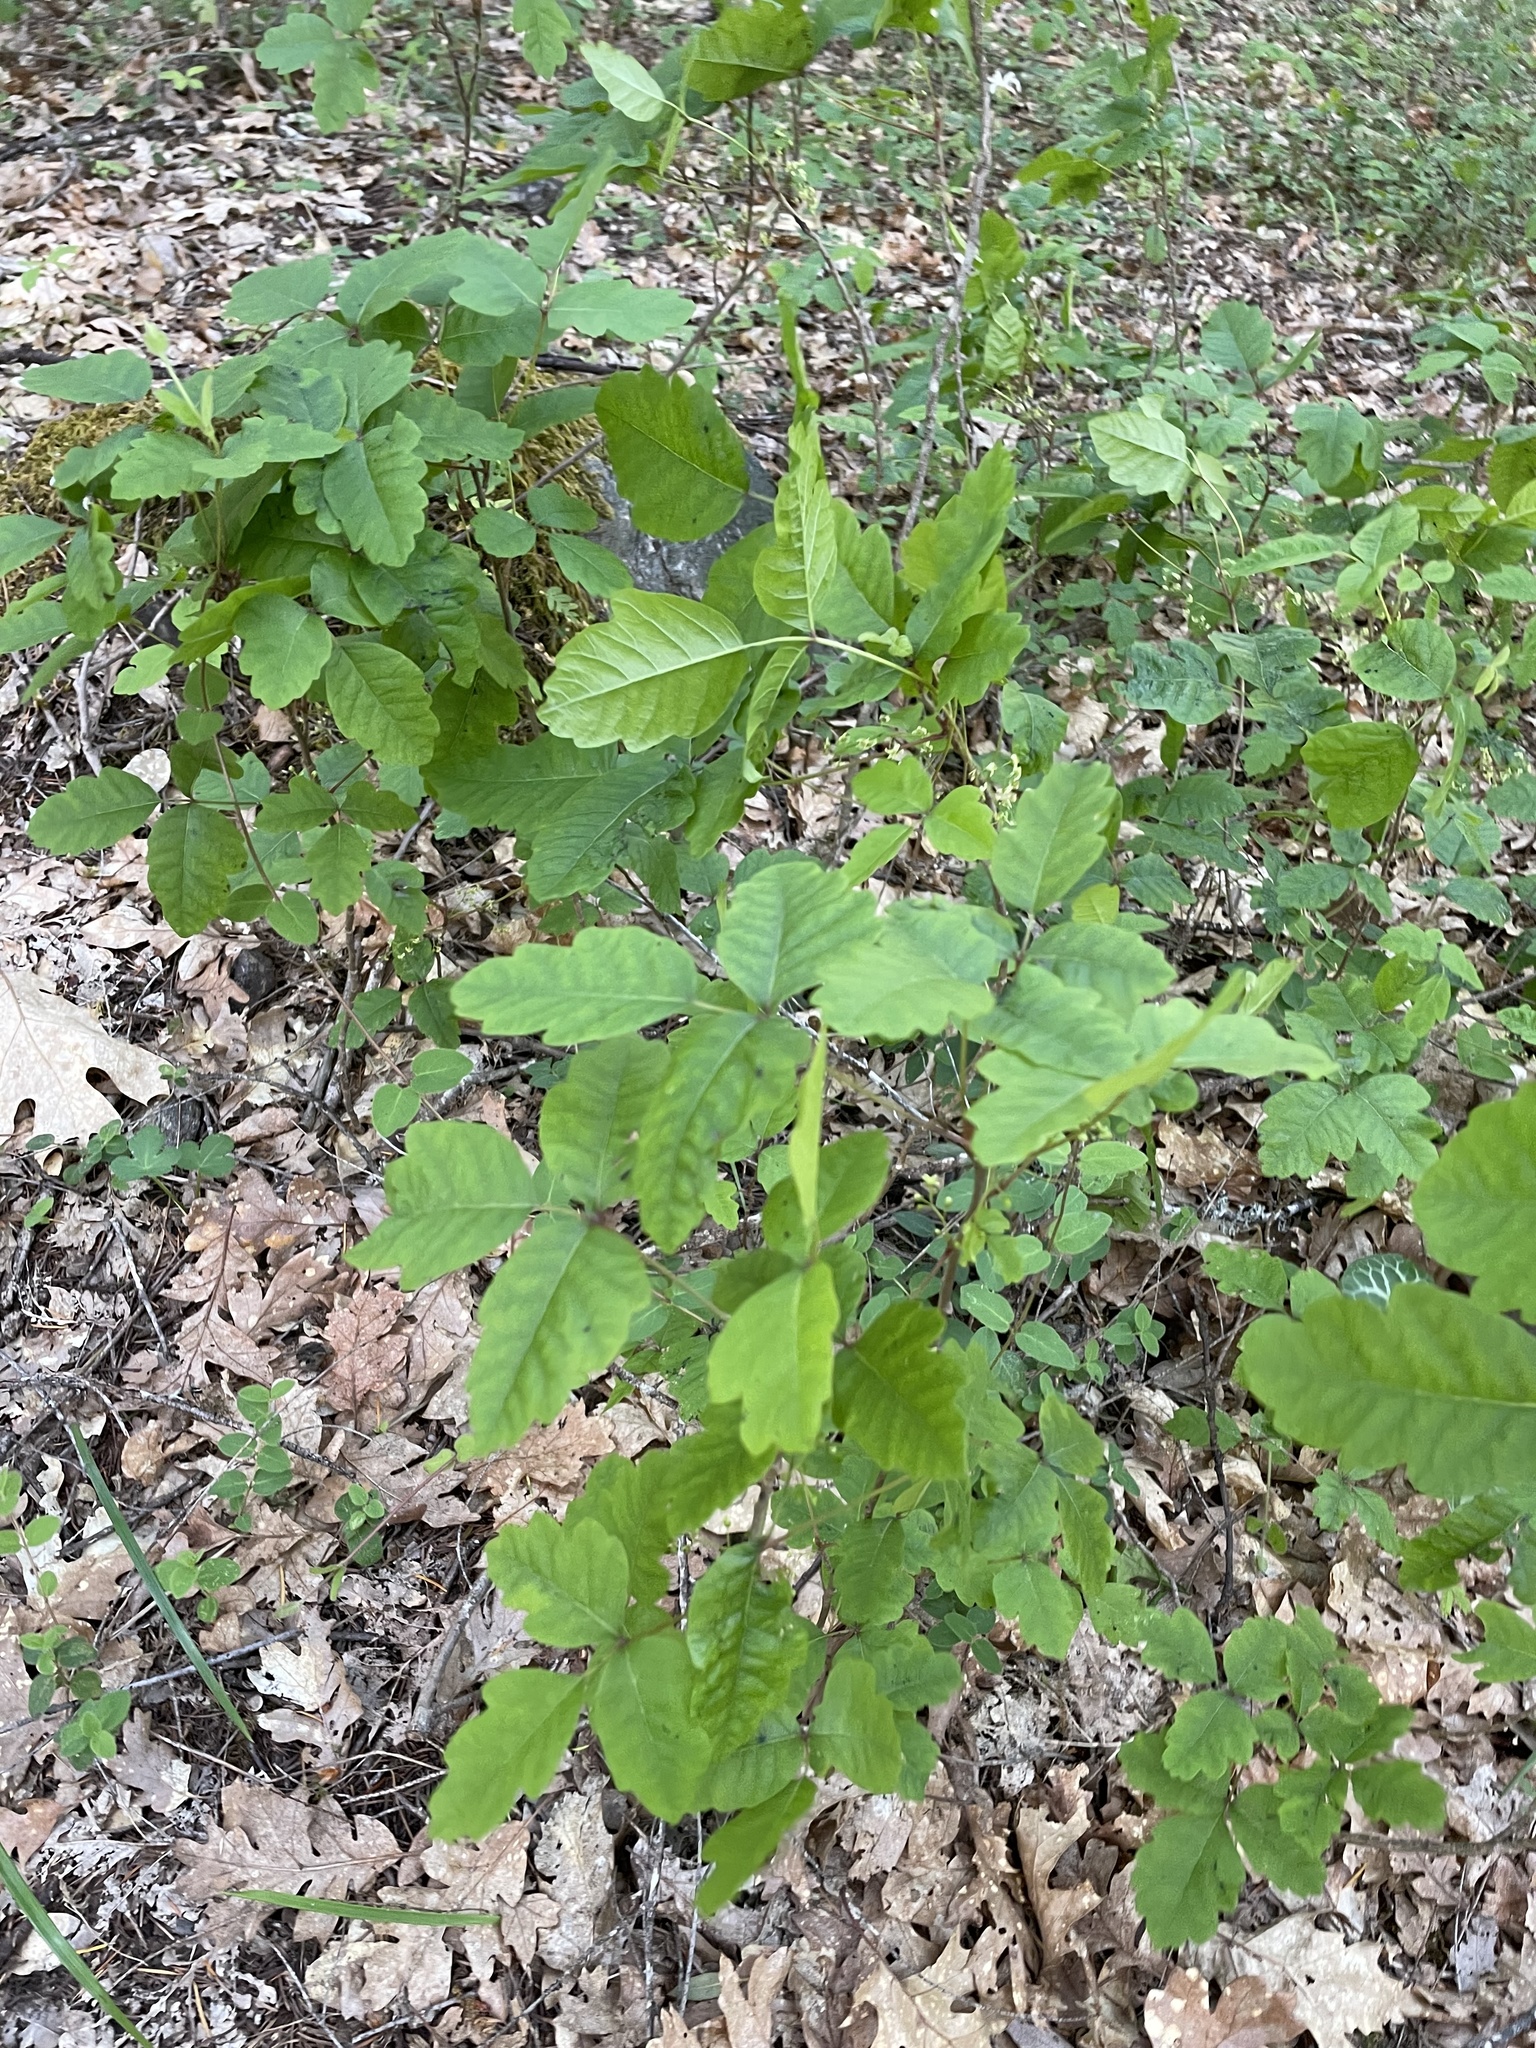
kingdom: Plantae
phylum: Tracheophyta
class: Magnoliopsida
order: Sapindales
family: Anacardiaceae
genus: Toxicodendron
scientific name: Toxicodendron diversilobum
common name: Pacific poison-oak
